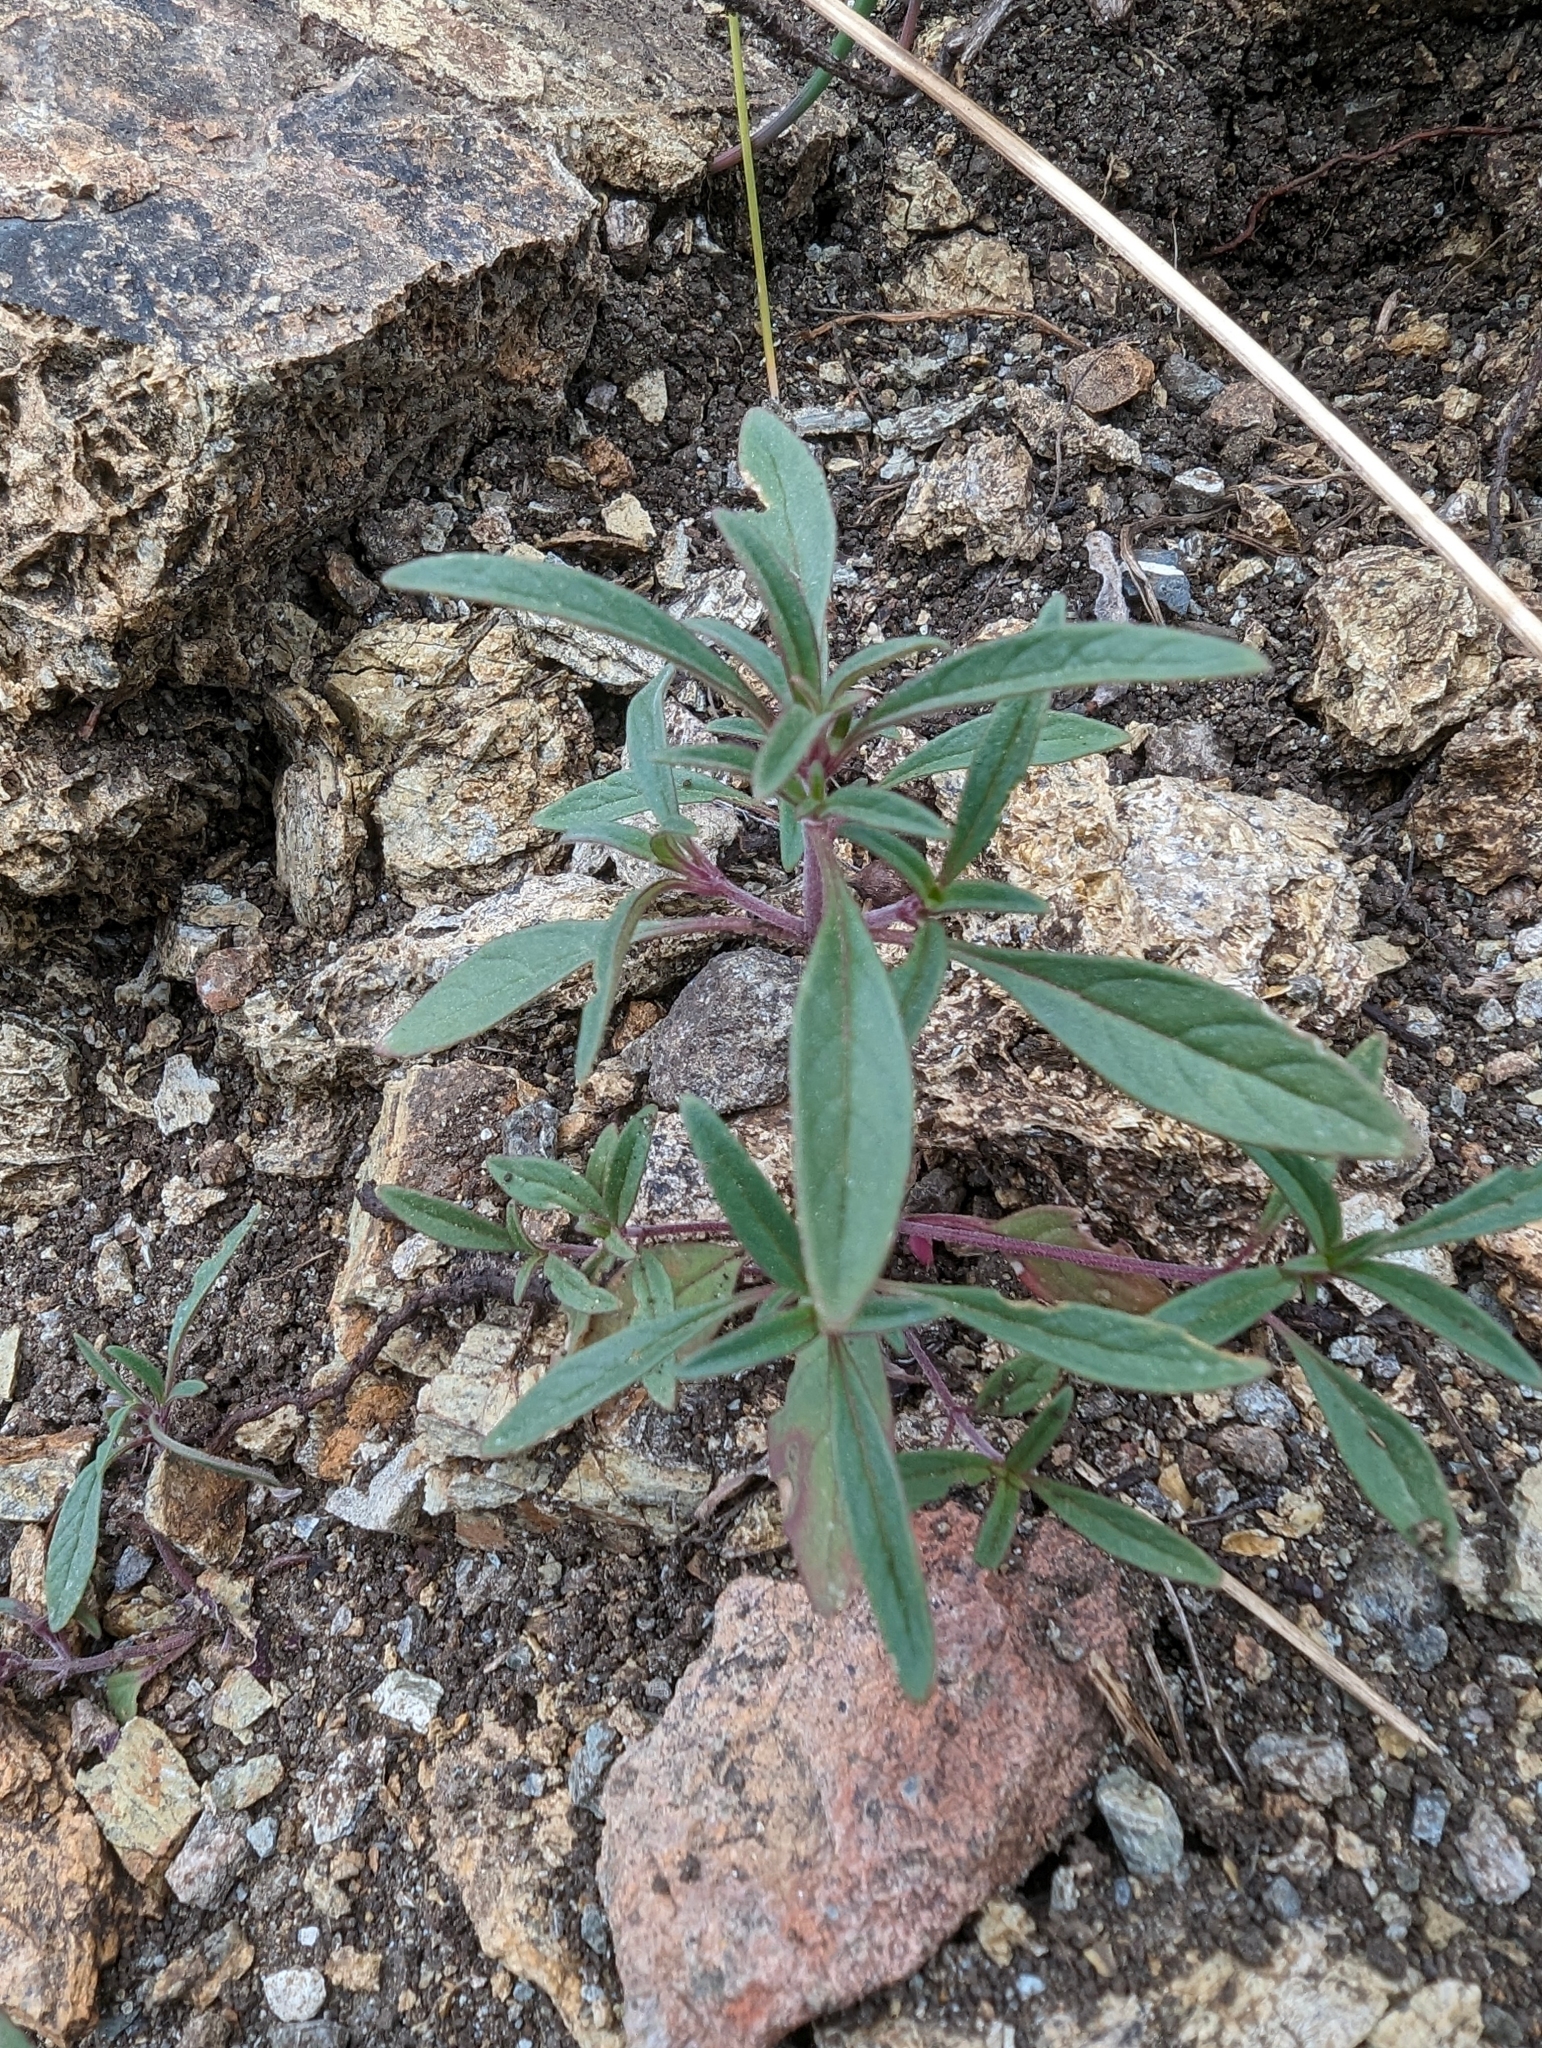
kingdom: Plantae
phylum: Tracheophyta
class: Magnoliopsida
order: Lamiales
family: Lamiaceae
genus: Monardella
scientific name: Monardella douglasii
